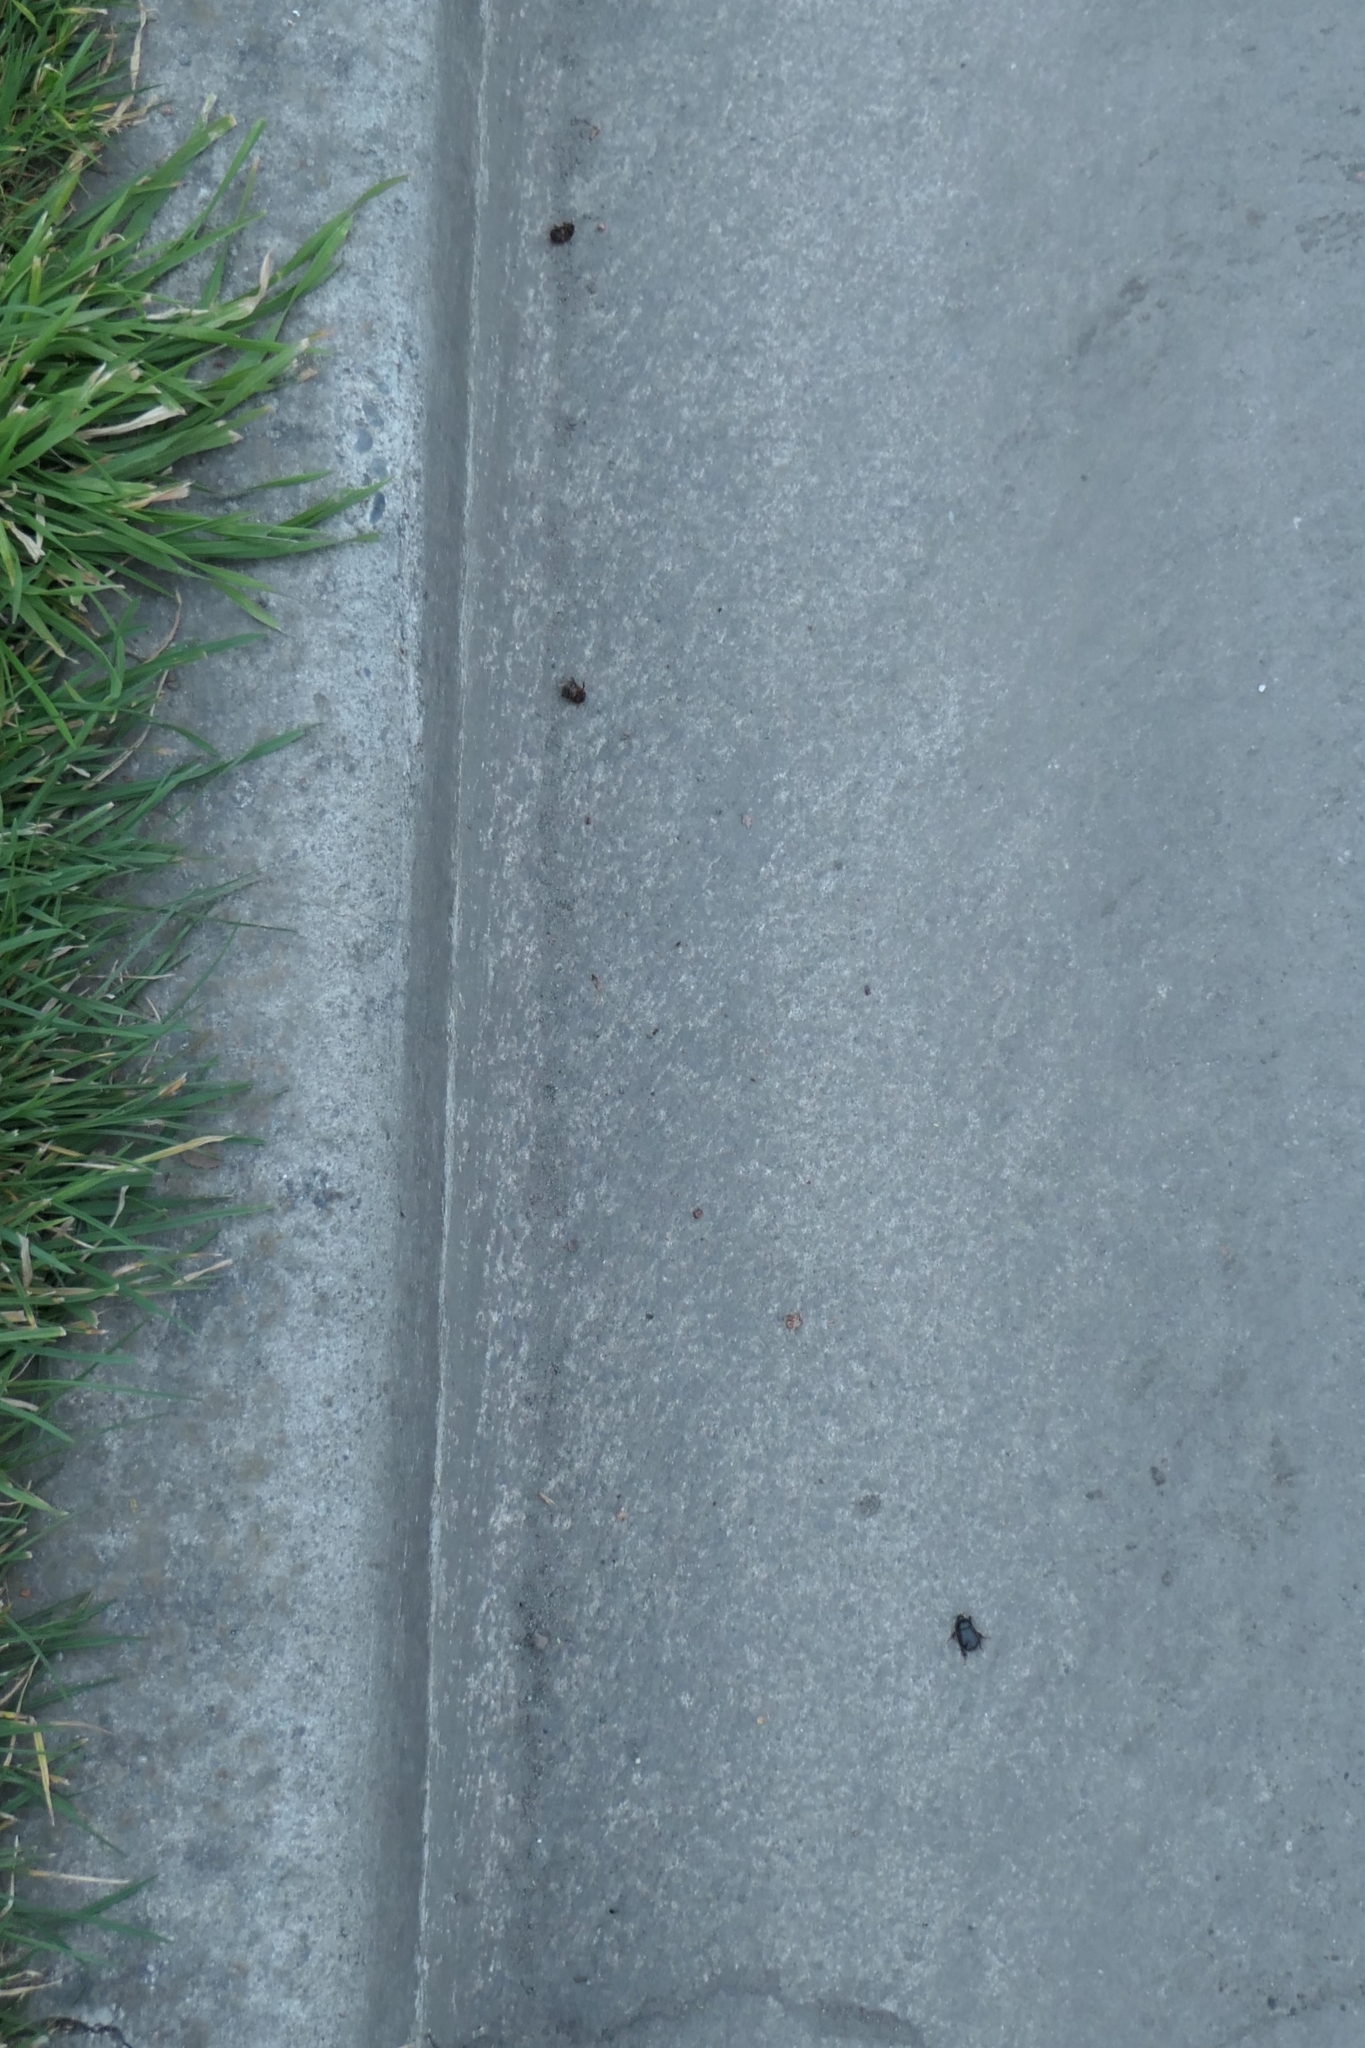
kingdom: Animalia
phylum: Arthropoda
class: Insecta
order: Coleoptera
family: Scarabaeidae
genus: Adoryphorus
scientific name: Adoryphorus couloni
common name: Redheaded pasture cockchafer
